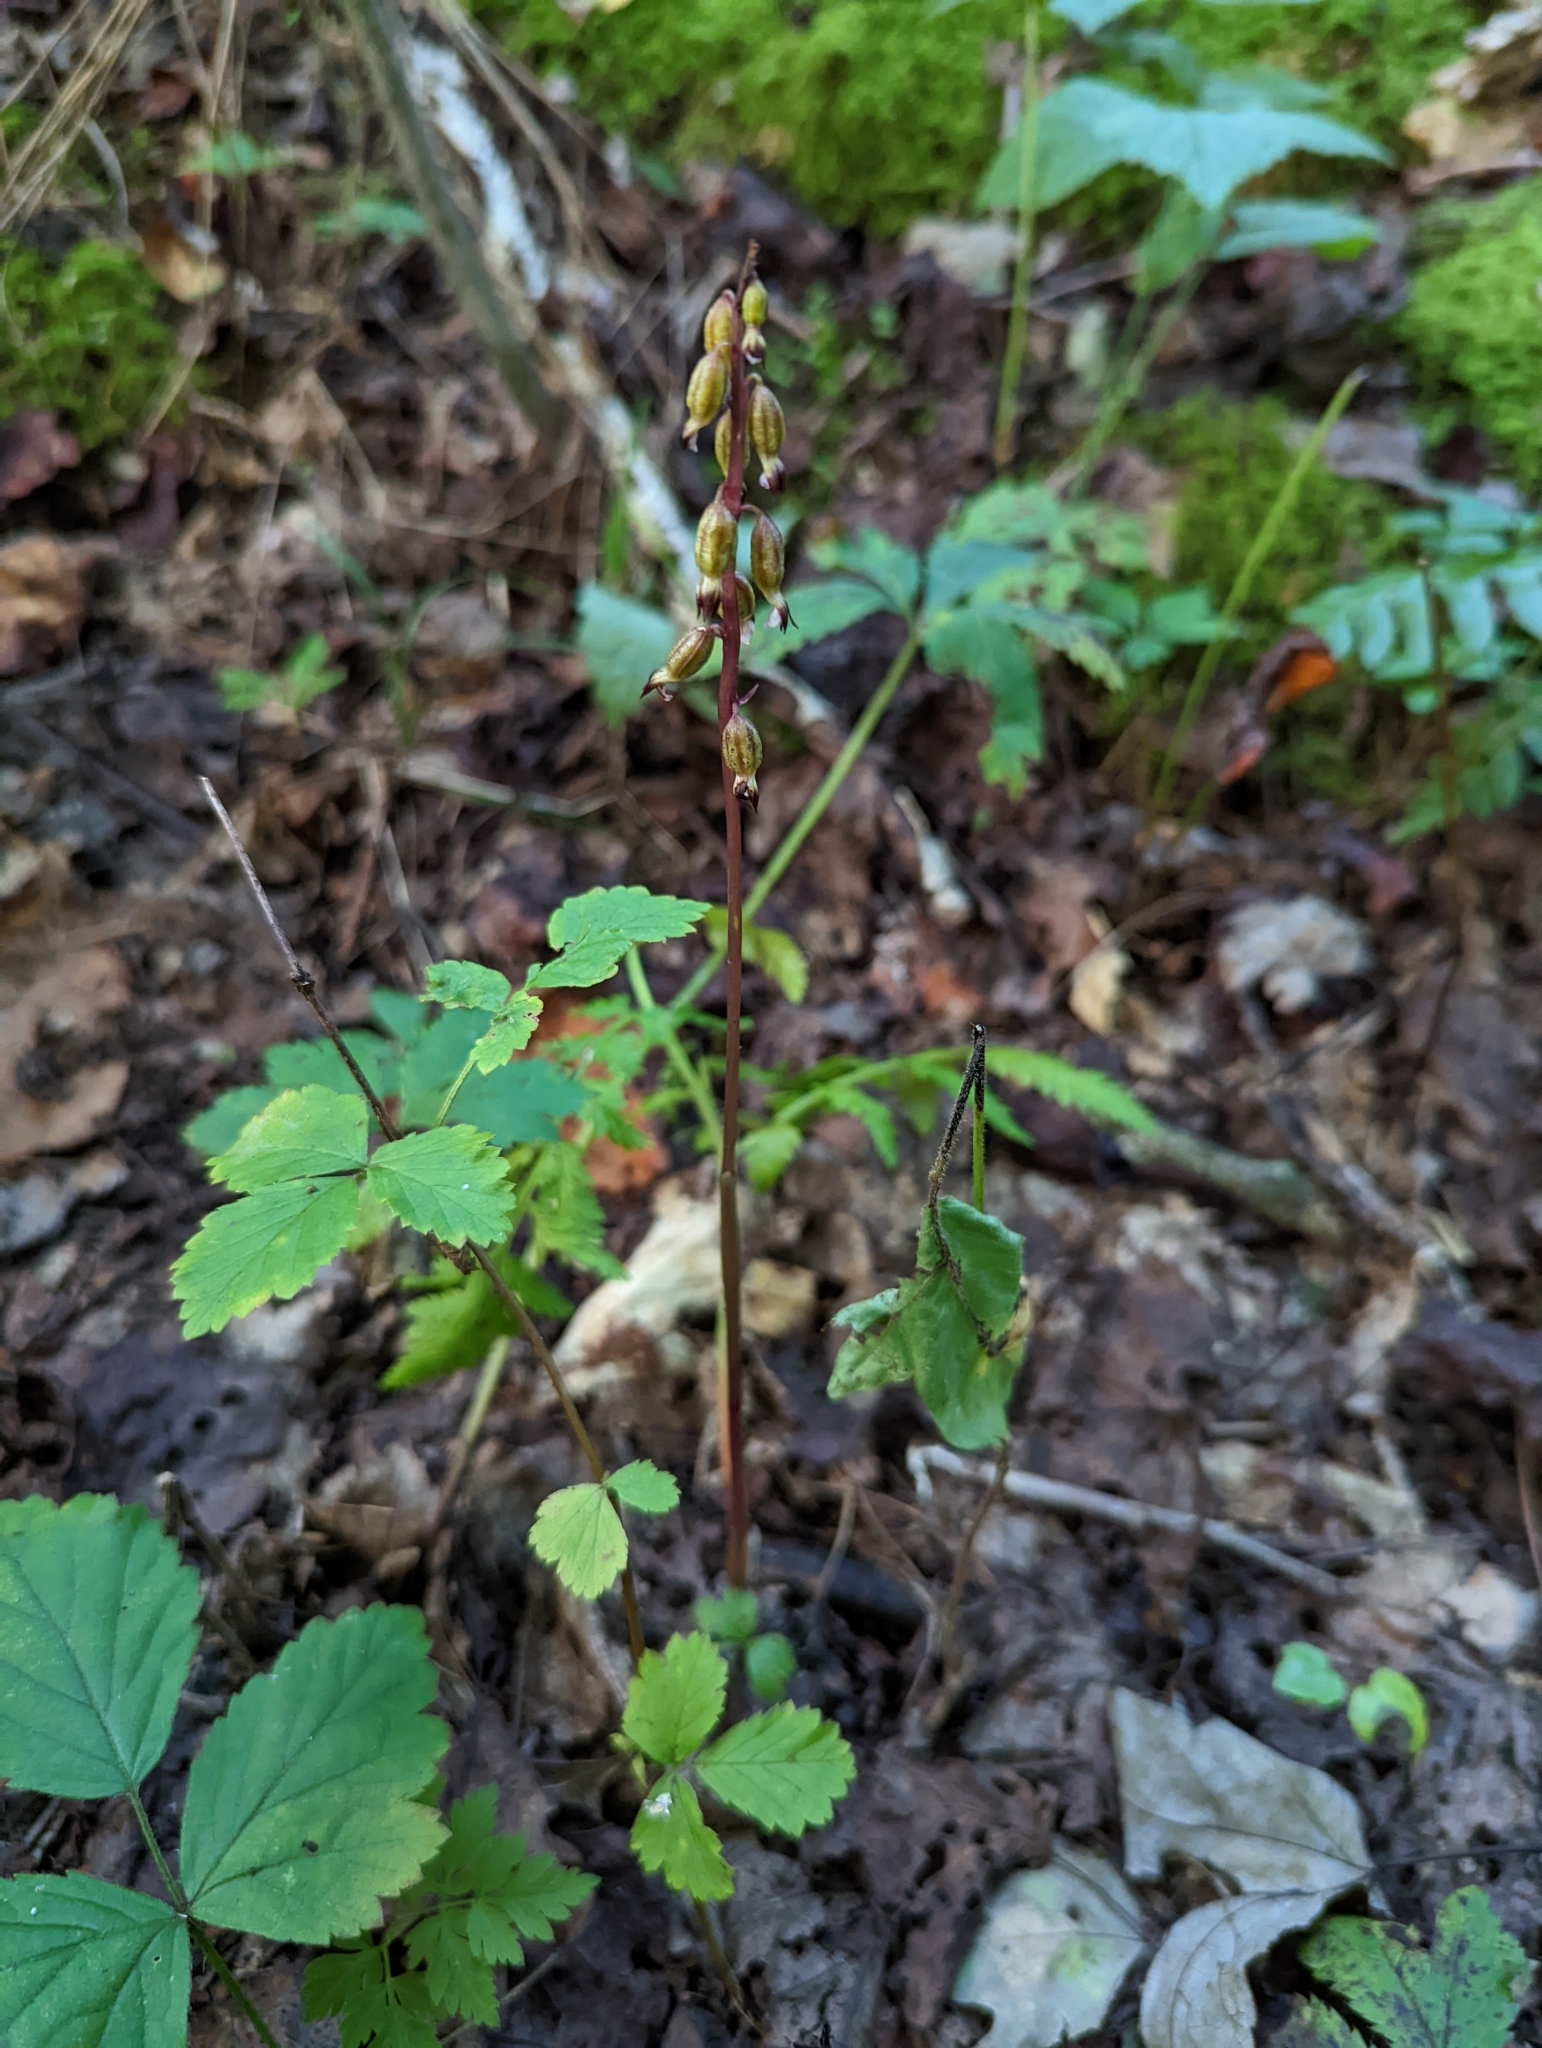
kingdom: Plantae
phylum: Tracheophyta
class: Liliopsida
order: Asparagales
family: Orchidaceae
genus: Corallorhiza
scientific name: Corallorhiza odontorhiza
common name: Autumn coralroot
